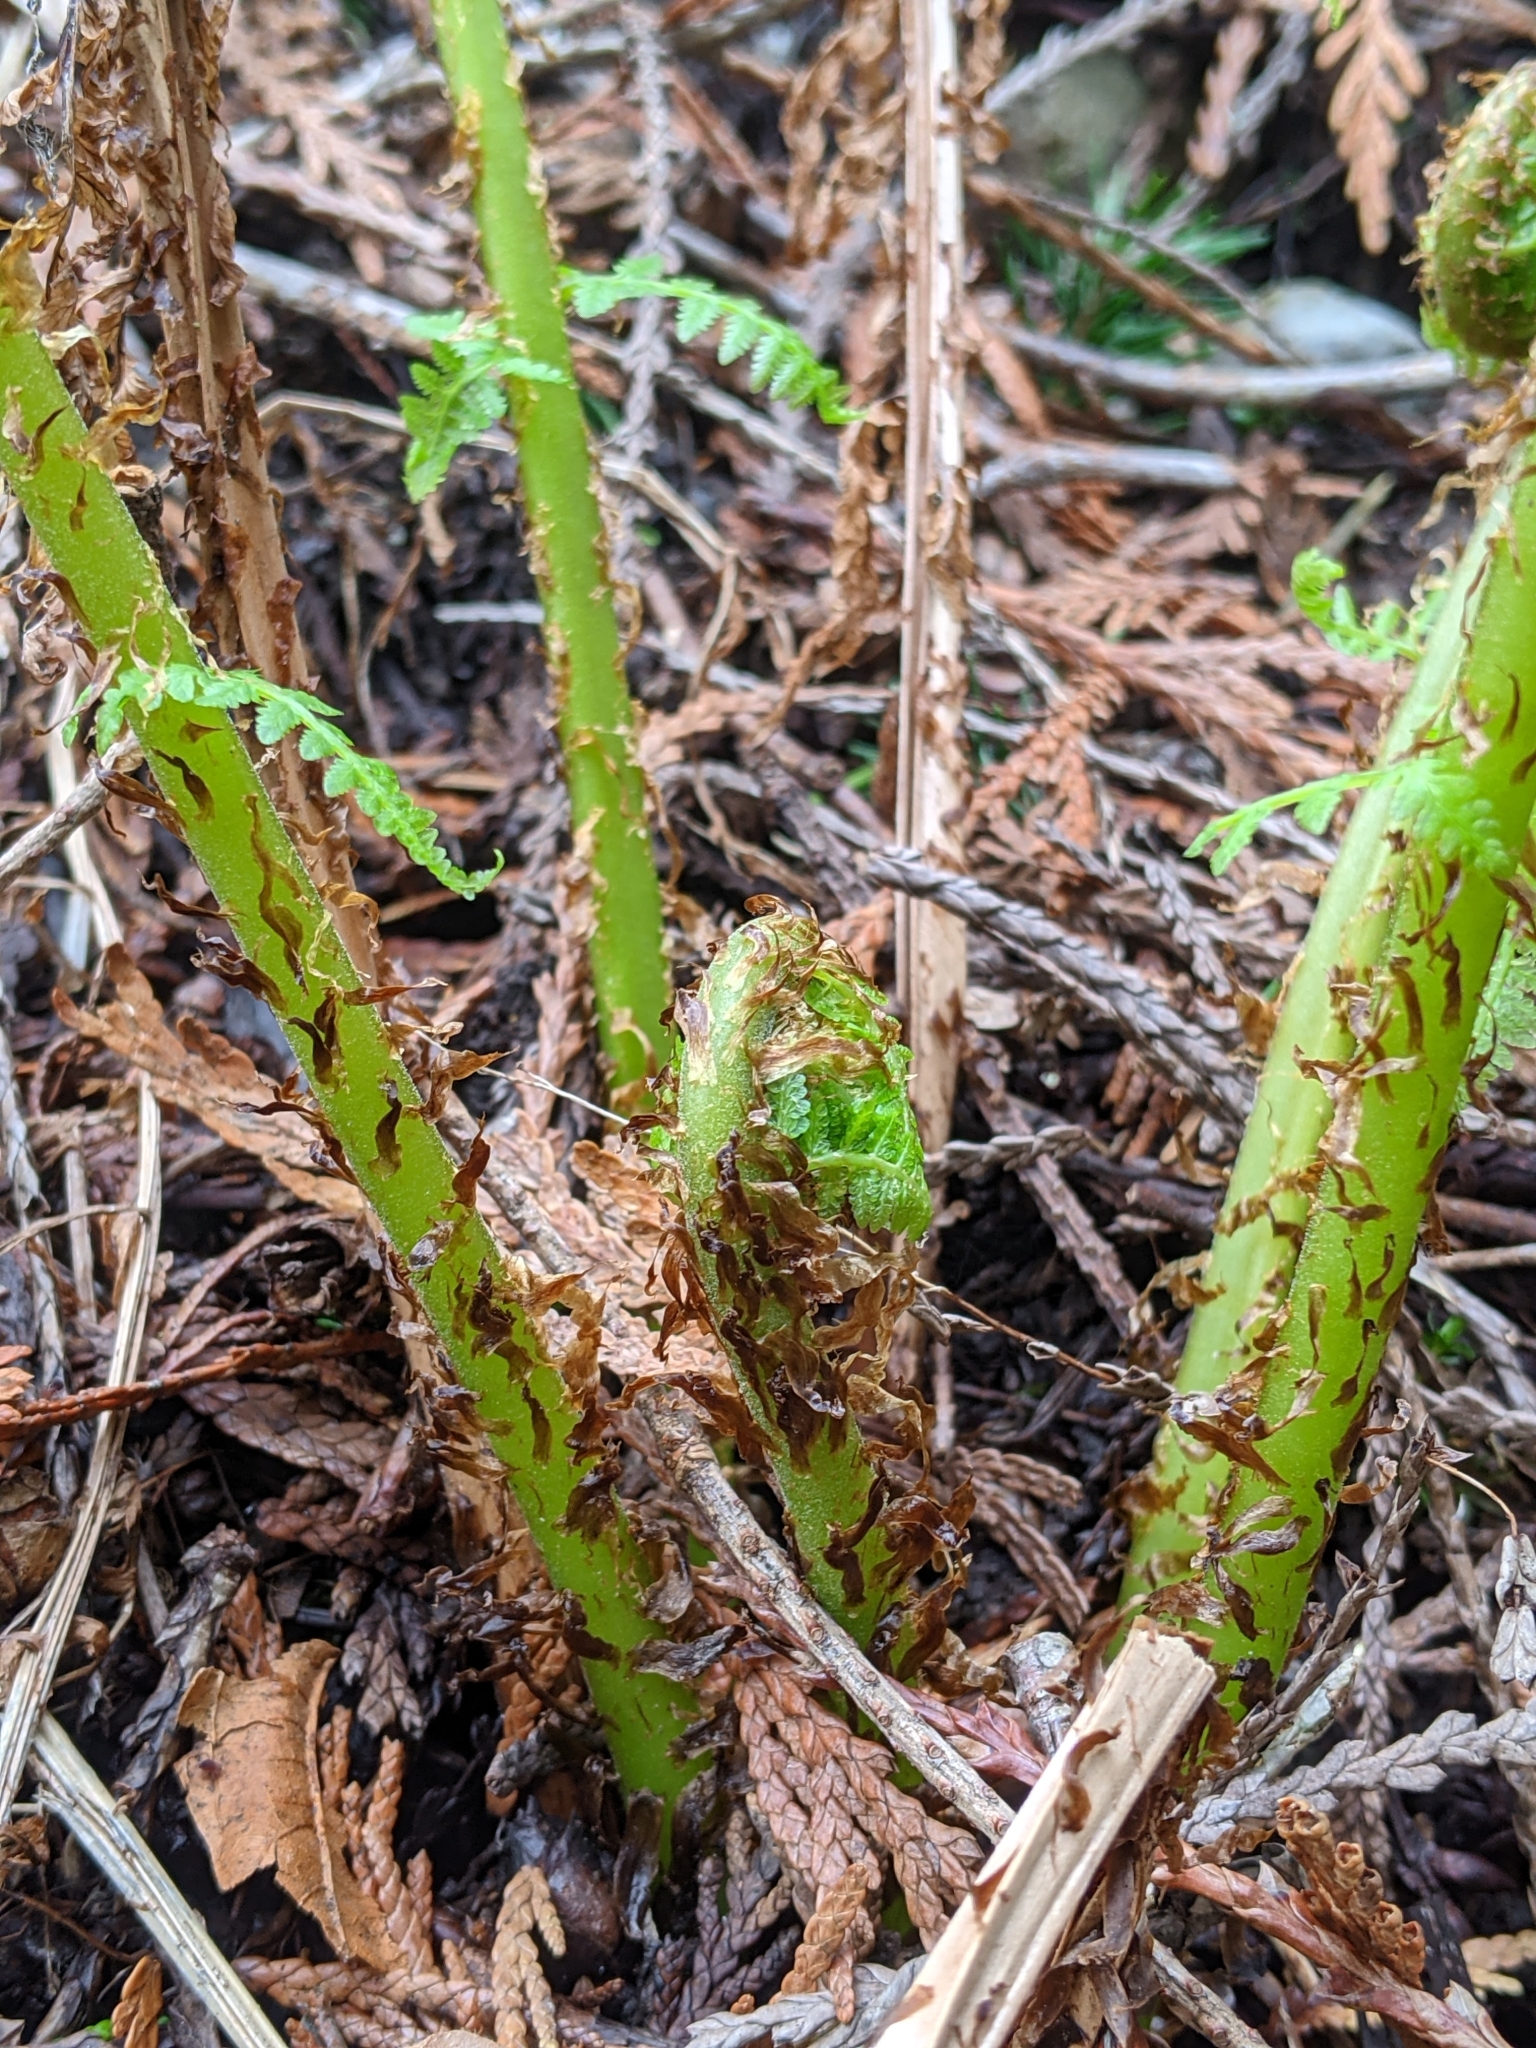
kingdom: Plantae
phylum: Tracheophyta
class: Polypodiopsida
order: Polypodiales
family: Athyriaceae
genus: Athyrium
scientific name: Athyrium filix-femina
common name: Lady fern
